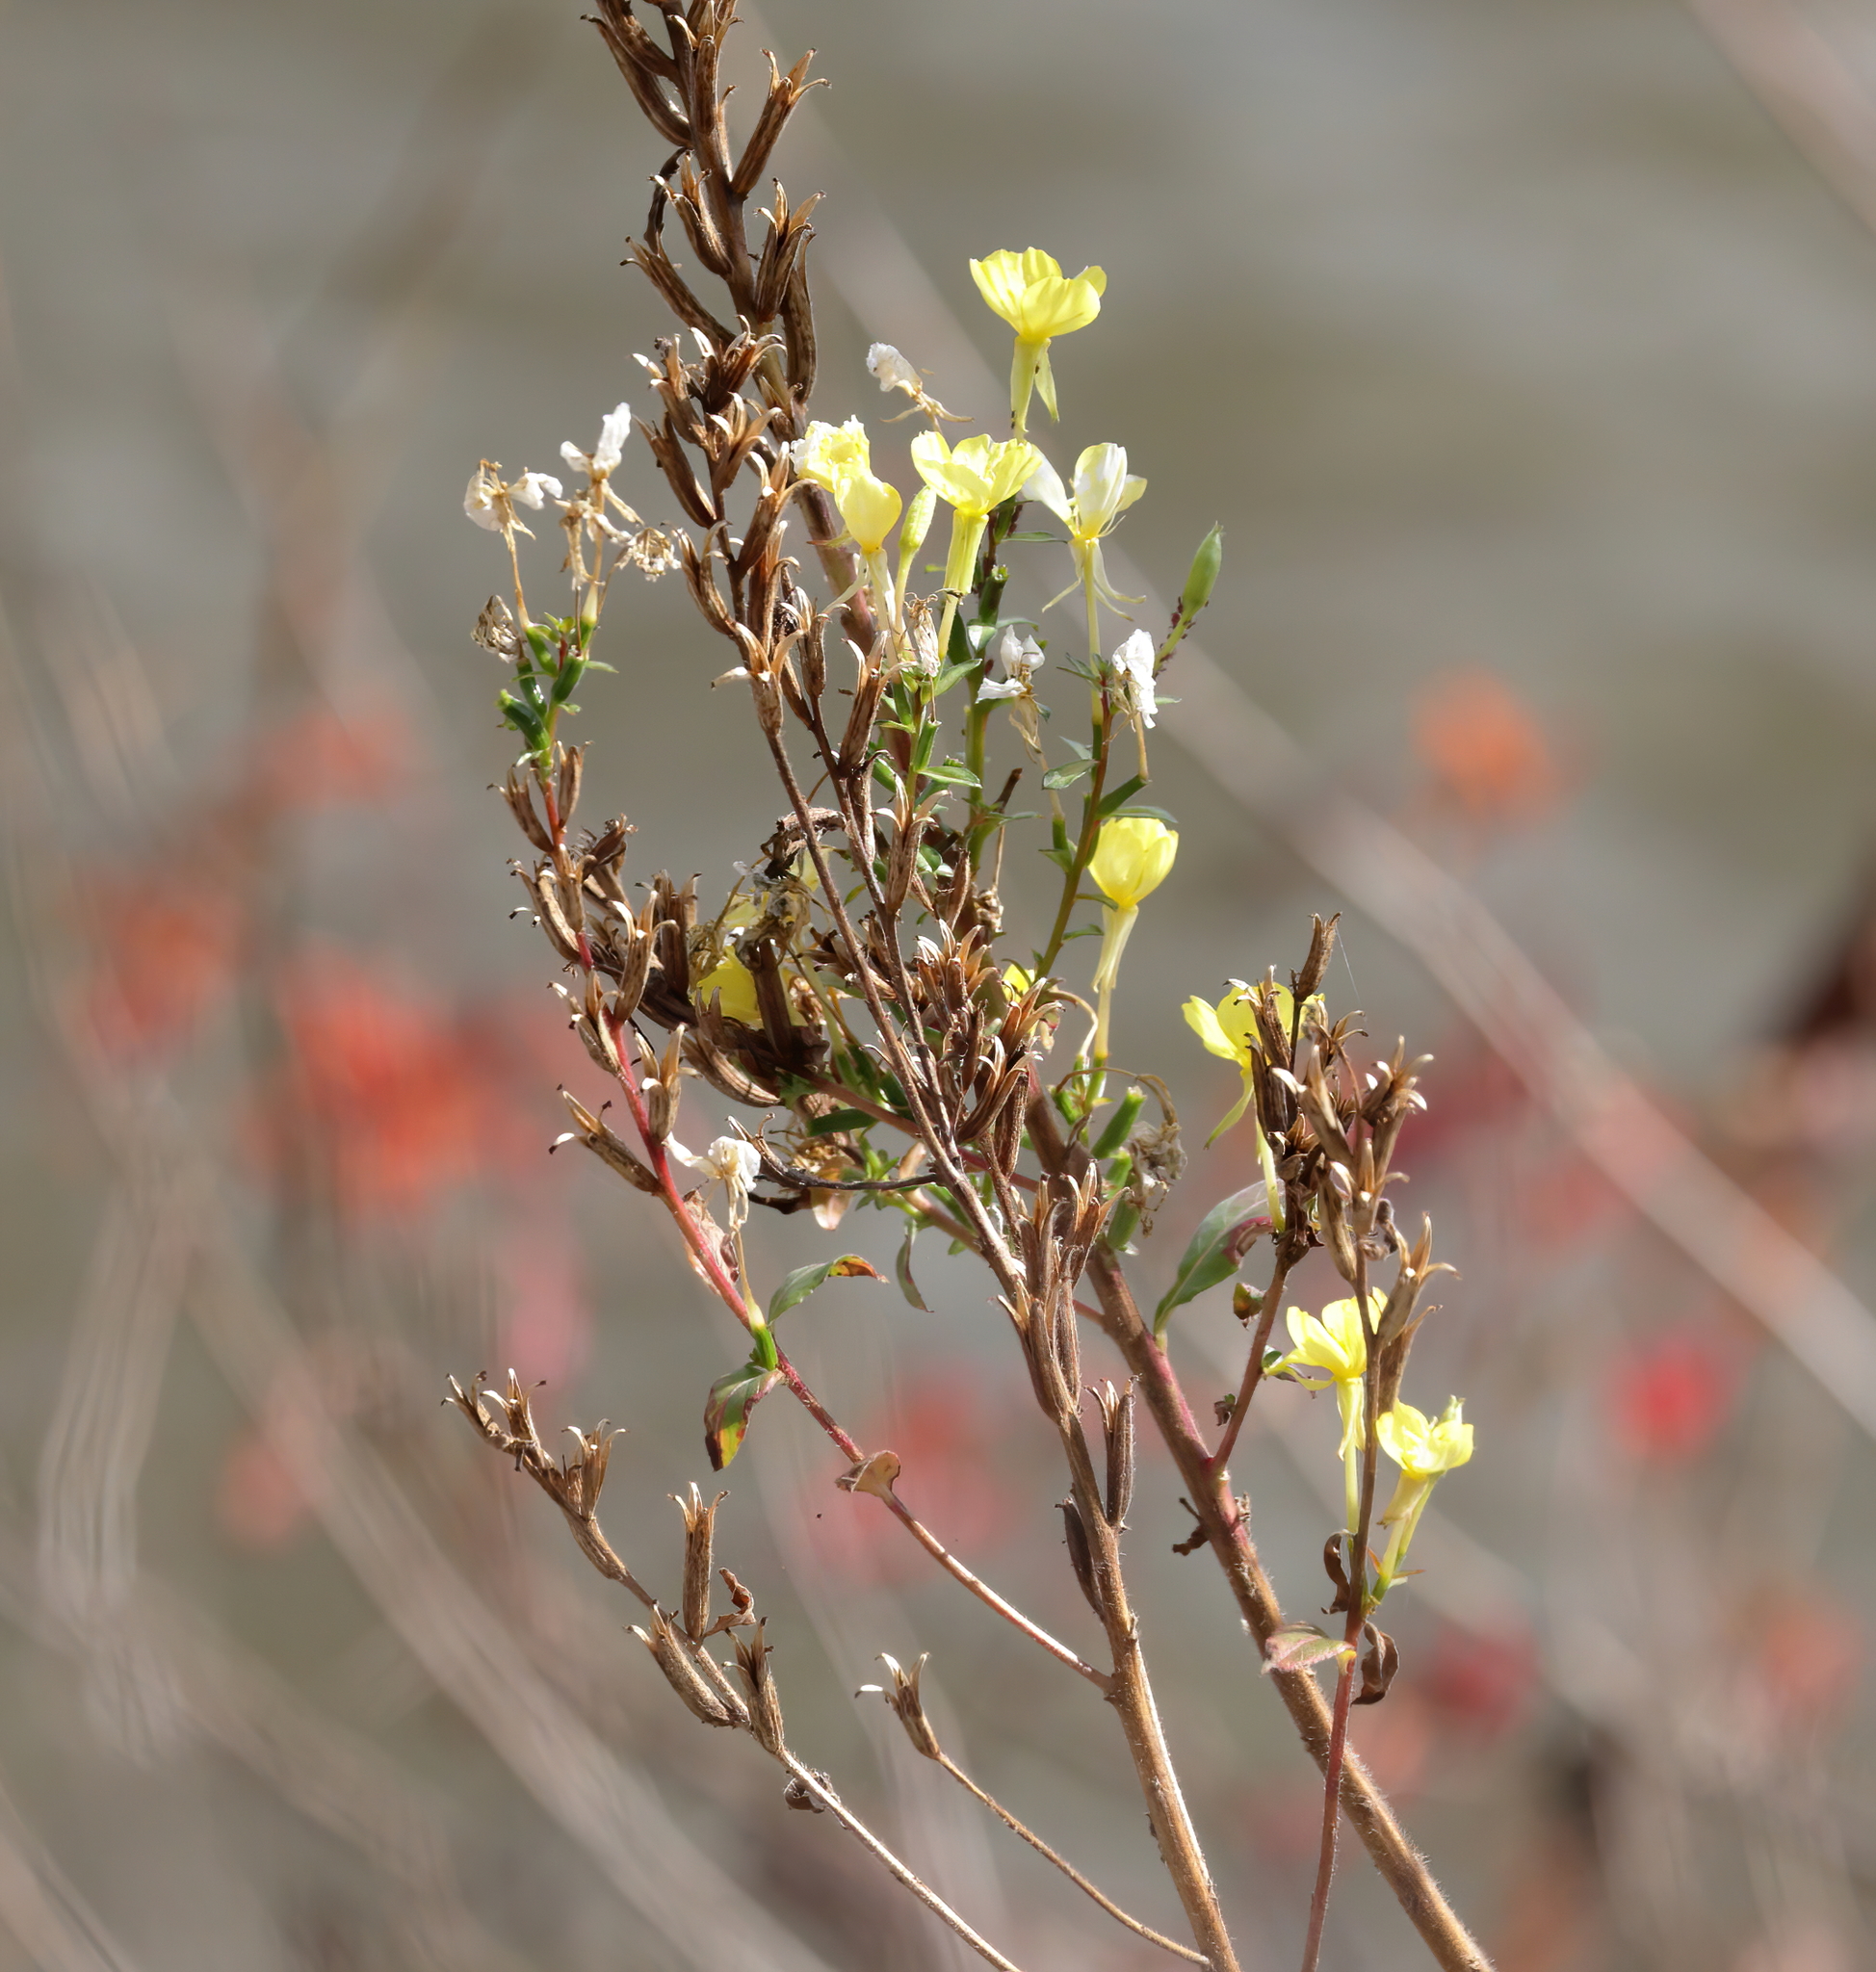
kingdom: Plantae
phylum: Tracheophyta
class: Magnoliopsida
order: Myrtales
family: Onagraceae
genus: Oenothera
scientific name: Oenothera biennis
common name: Common evening-primrose
